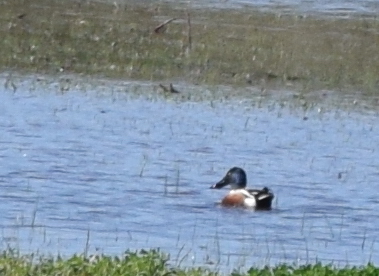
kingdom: Animalia
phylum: Chordata
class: Aves
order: Anseriformes
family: Anatidae
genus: Spatula
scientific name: Spatula clypeata
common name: Northern shoveler
